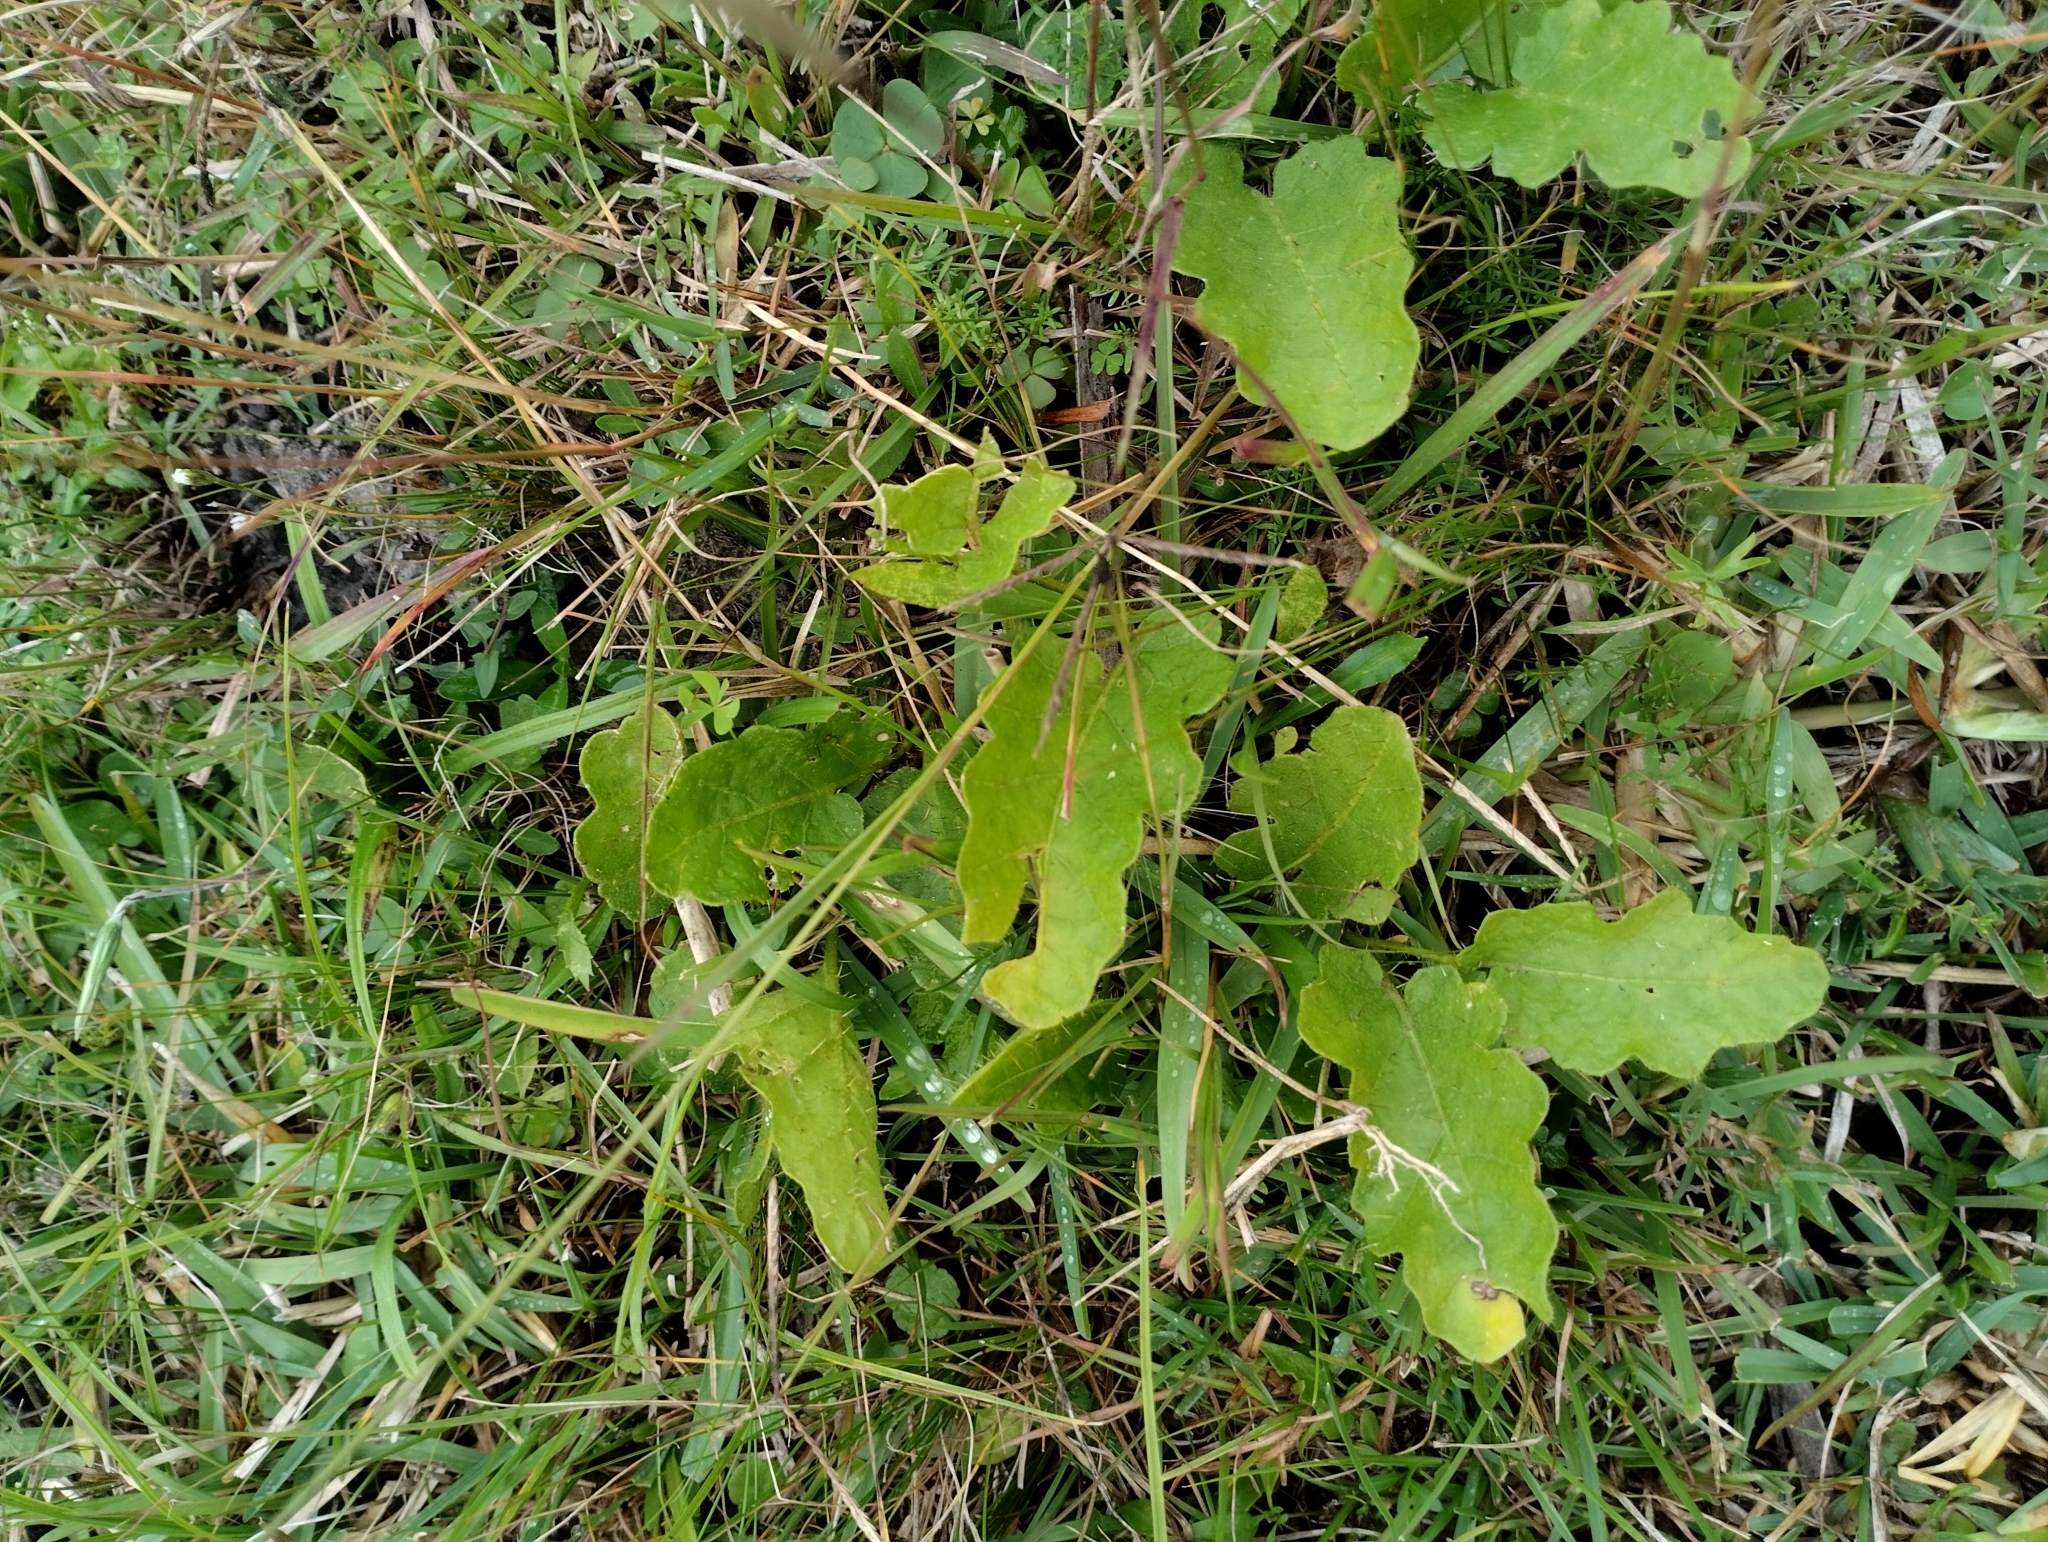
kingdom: Plantae
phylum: Tracheophyta
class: Magnoliopsida
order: Solanales
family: Solanaceae
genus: Solanum
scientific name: Solanum reineckii
